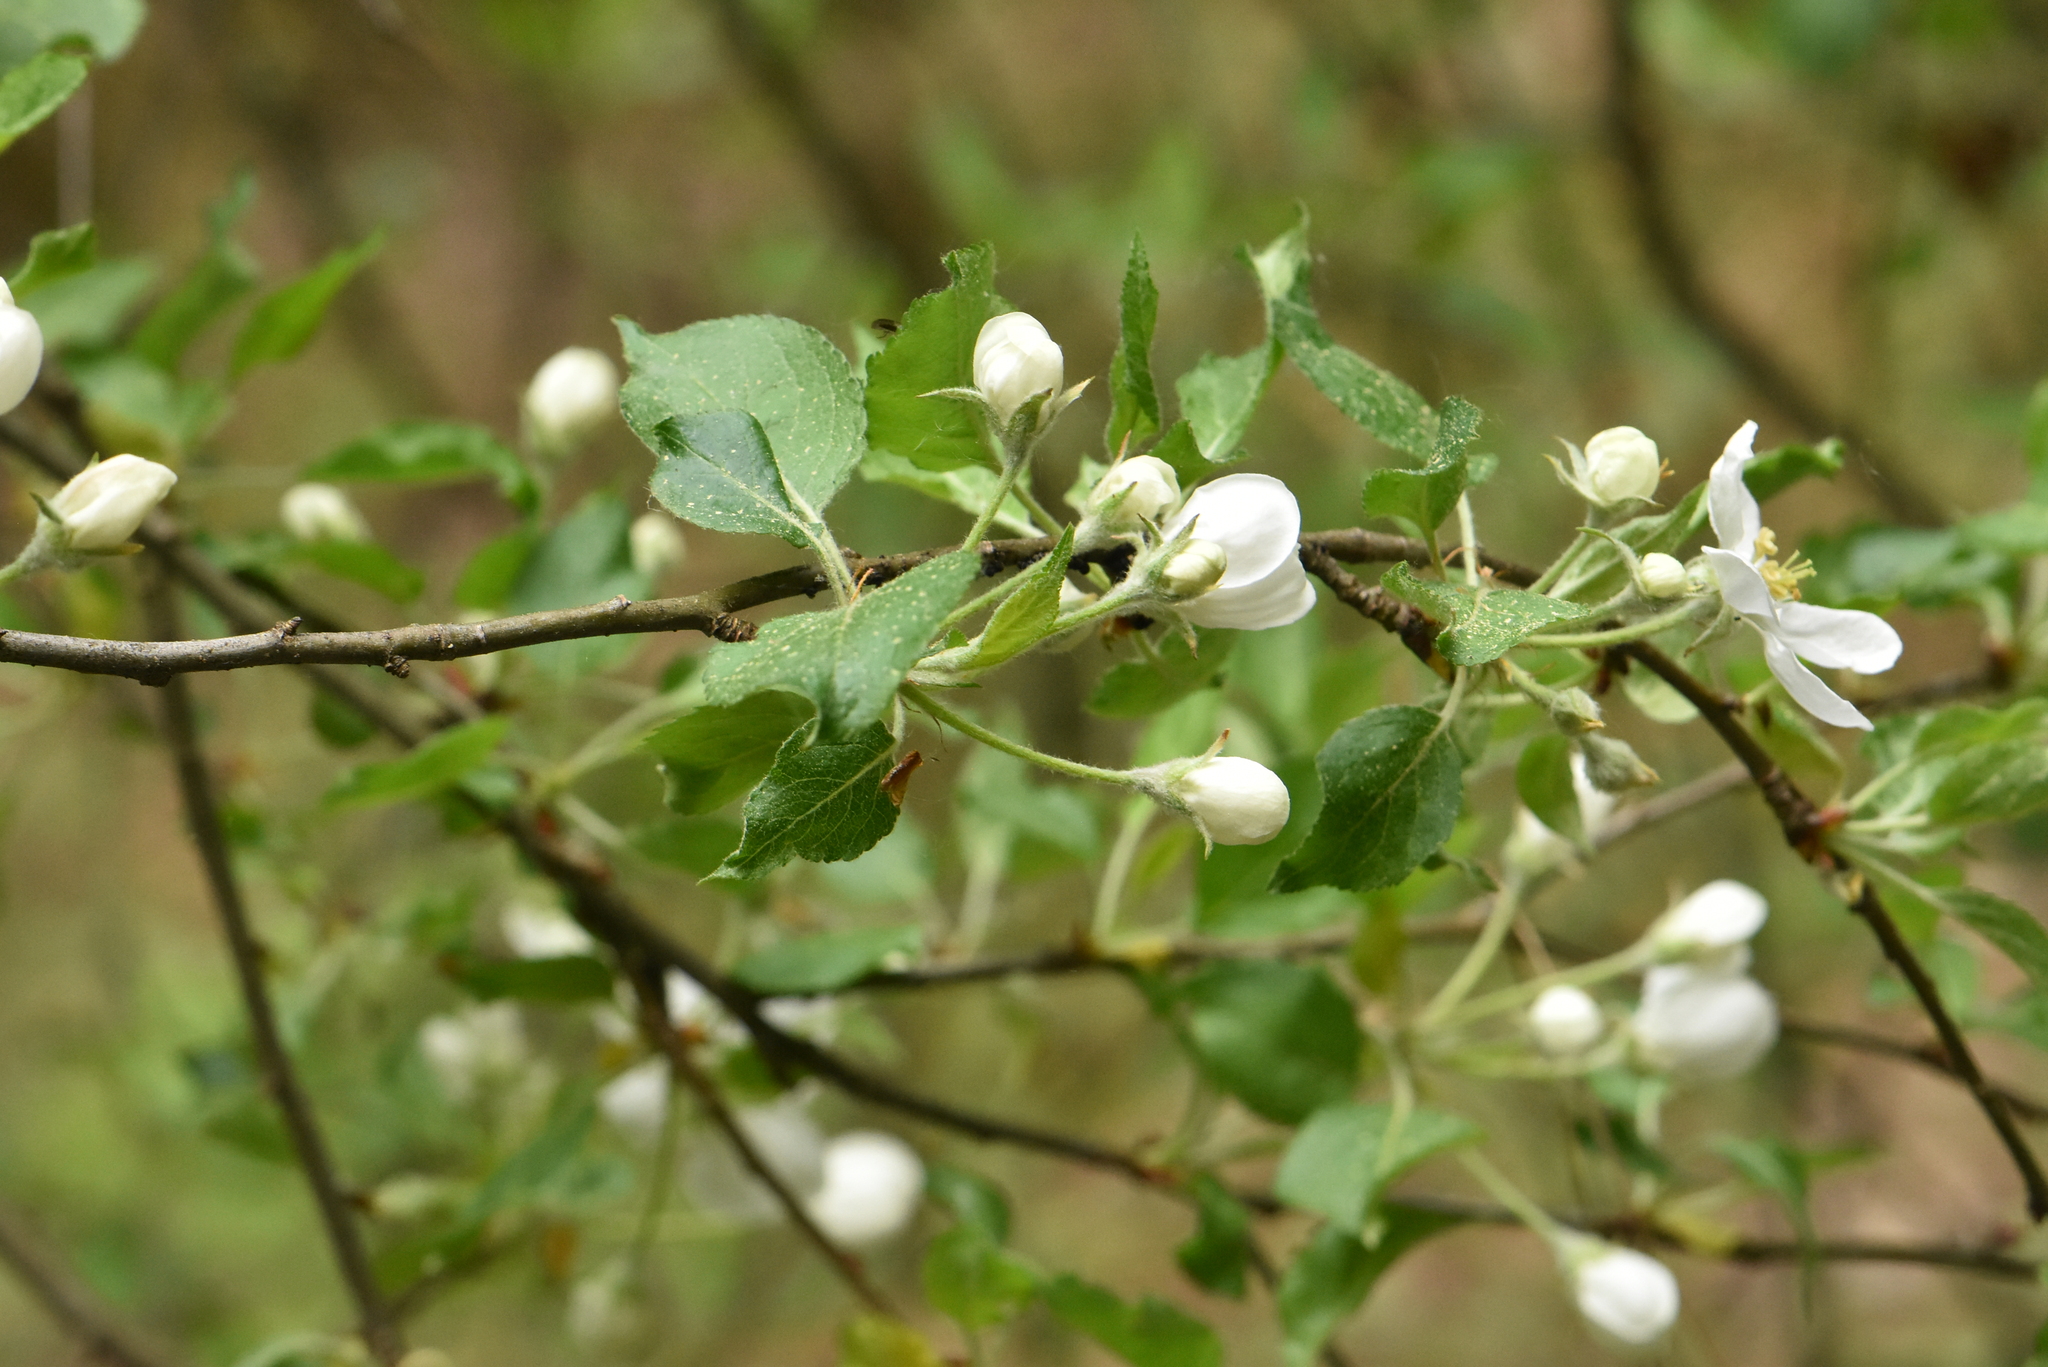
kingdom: Plantae
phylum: Tracheophyta
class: Magnoliopsida
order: Rosales
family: Rosaceae
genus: Malus
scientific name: Malus domestica
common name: Apple
